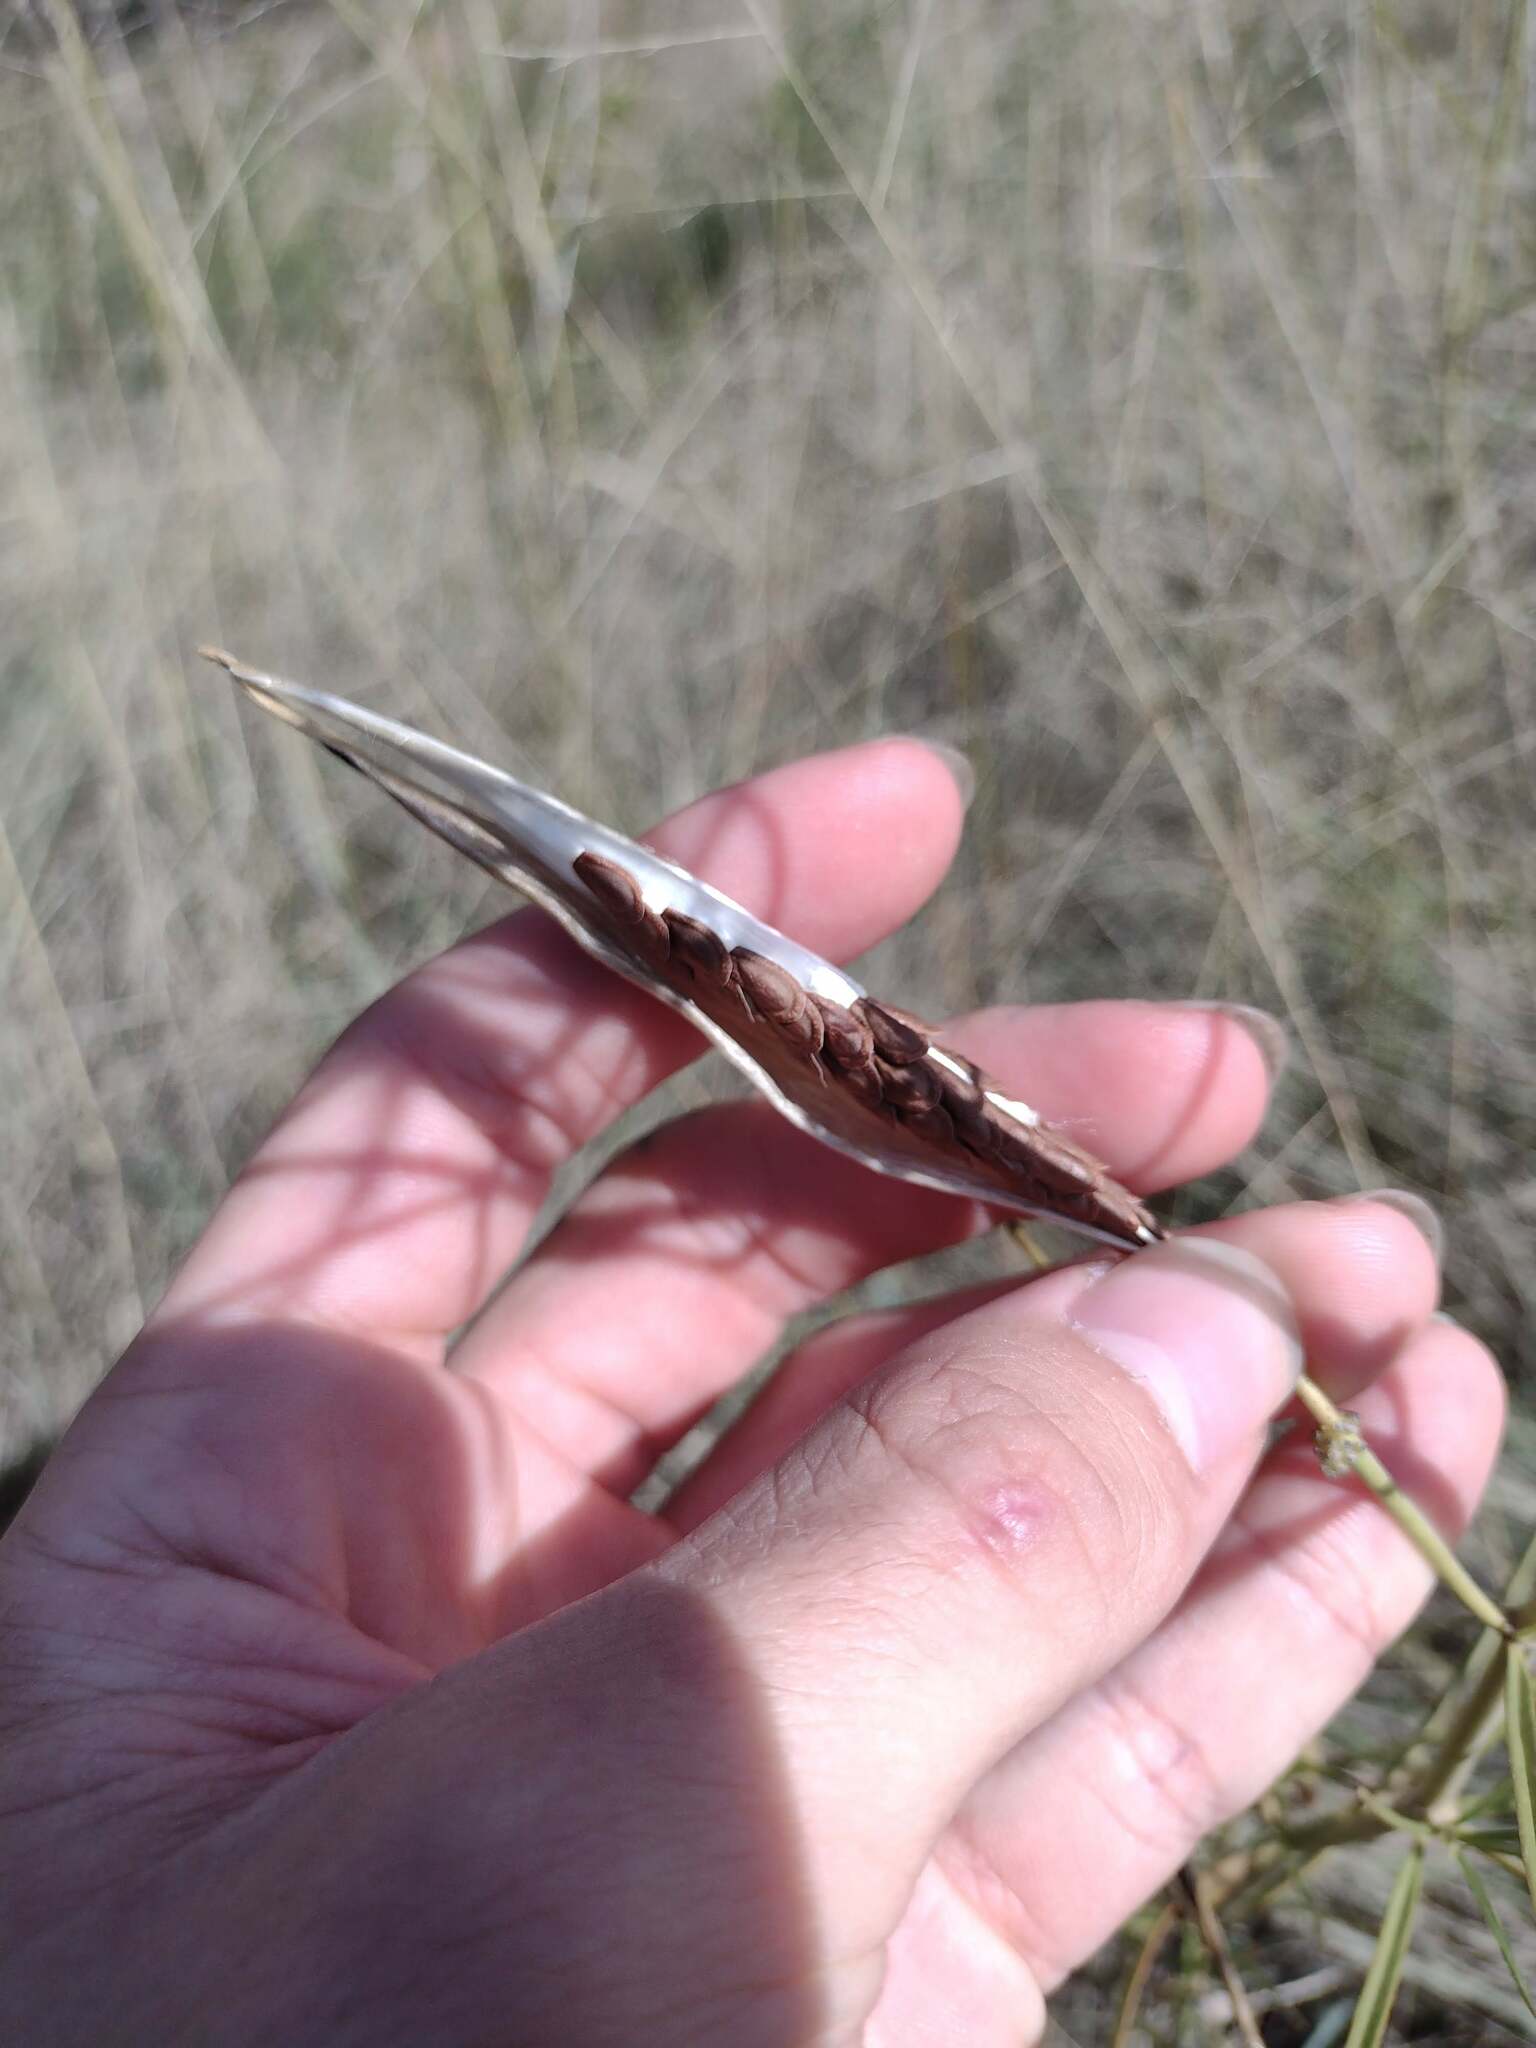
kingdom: Plantae
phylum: Tracheophyta
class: Magnoliopsida
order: Gentianales
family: Apocynaceae
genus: Asclepias
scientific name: Asclepias subverticillata
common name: Horsetail milkweed
